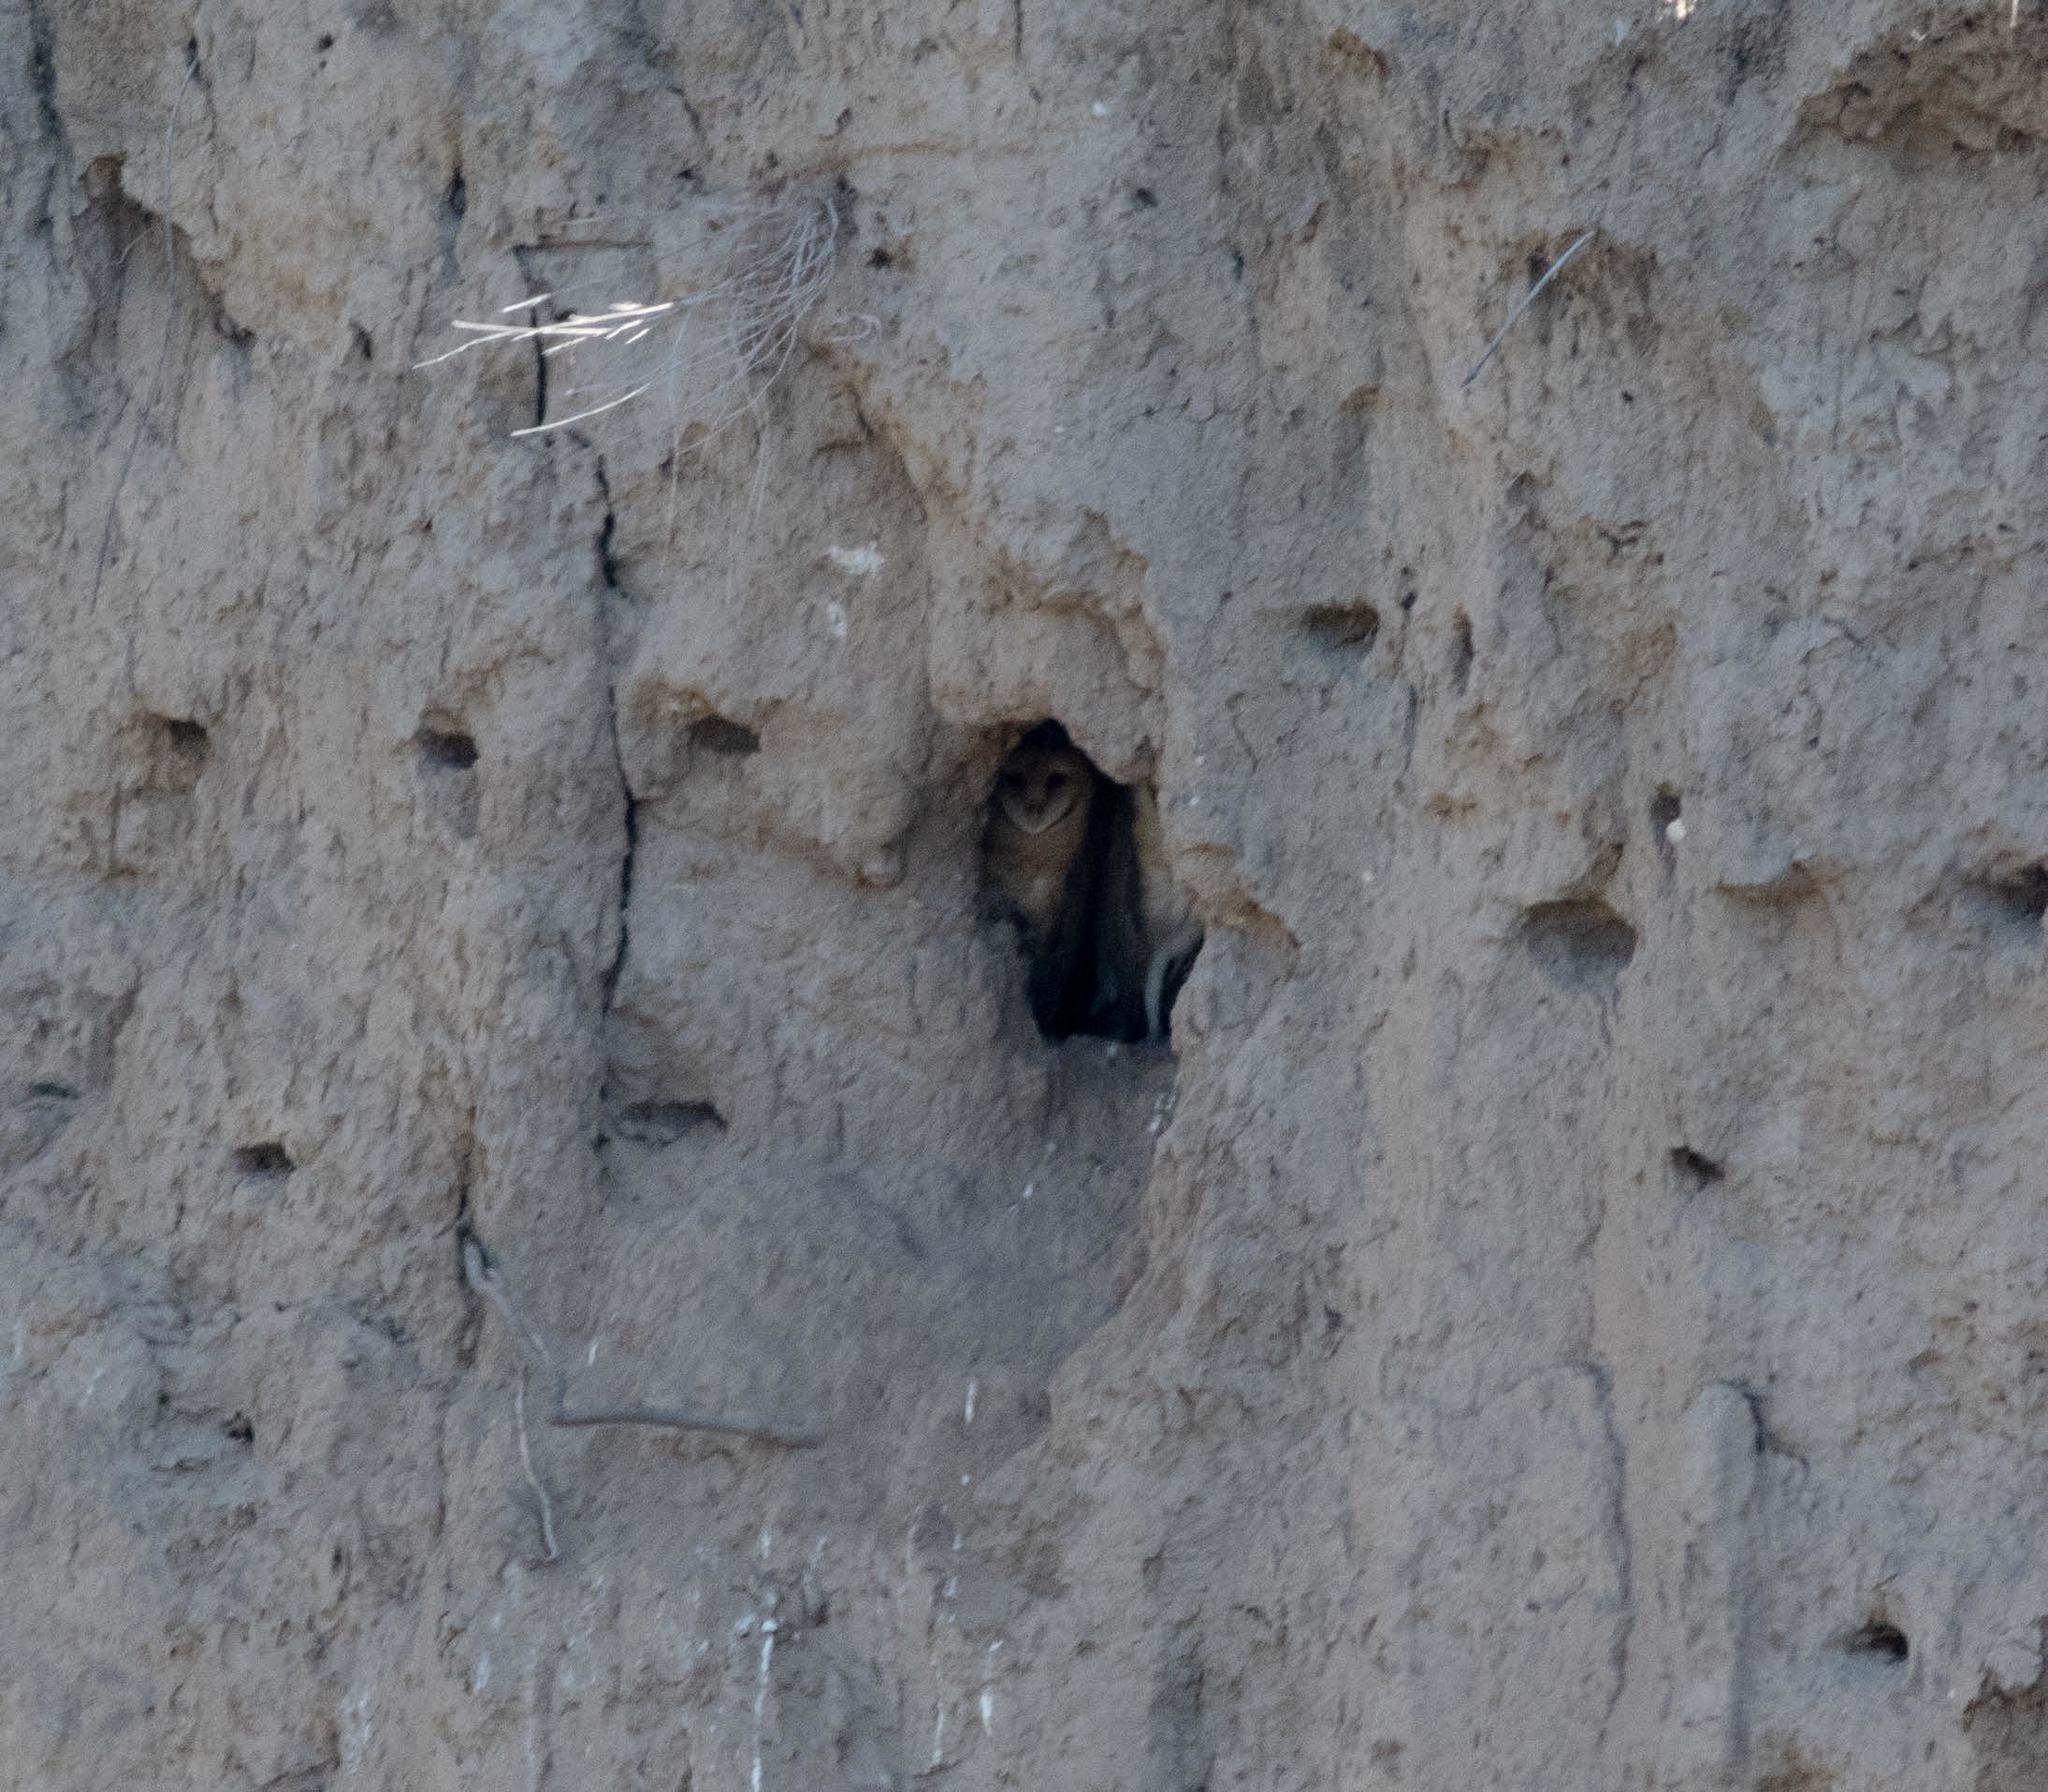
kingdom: Animalia
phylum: Chordata
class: Aves
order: Strigiformes
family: Tytonidae
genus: Tyto
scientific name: Tyto alba
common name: Barn owl
